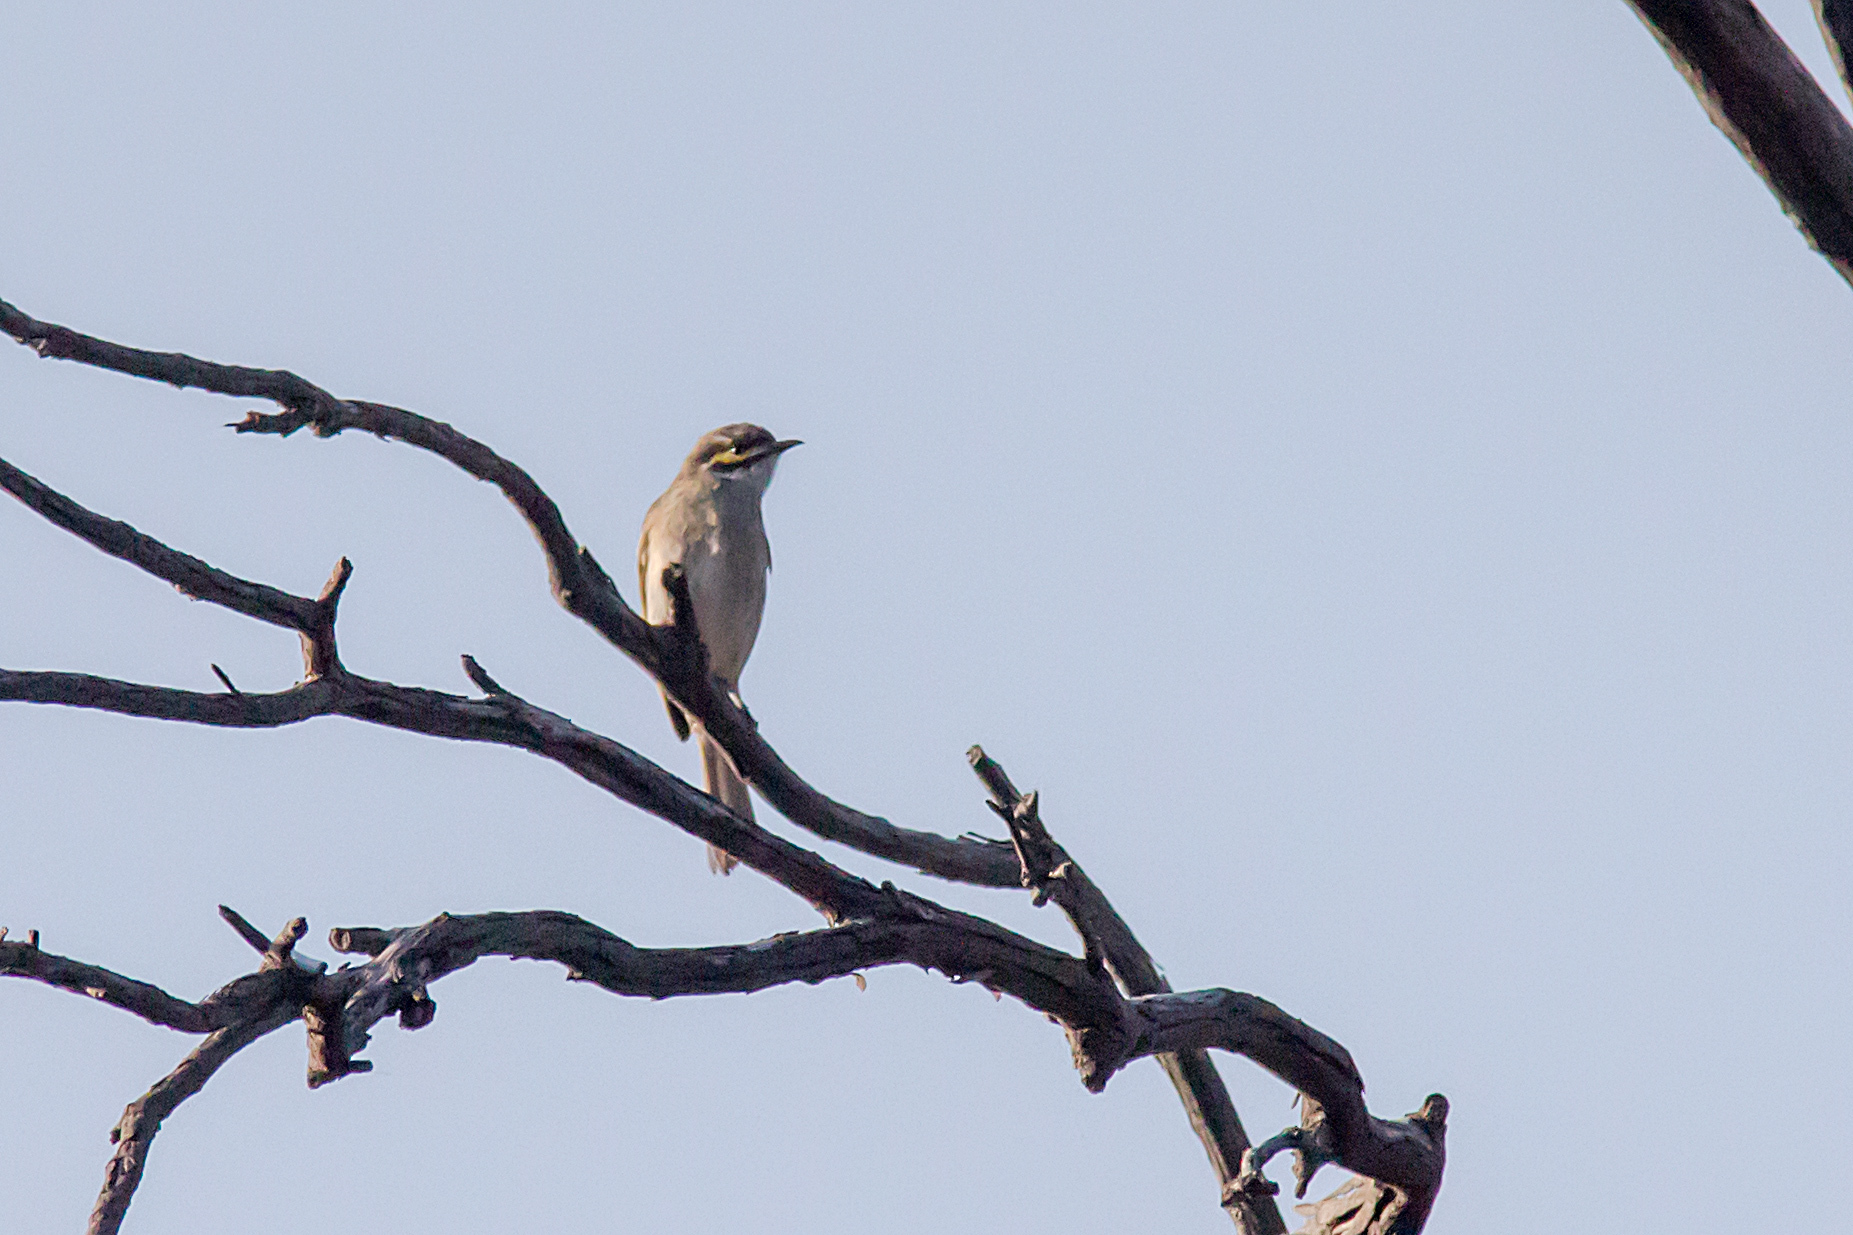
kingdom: Animalia
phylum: Chordata
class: Aves
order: Passeriformes
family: Meliphagidae
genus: Caligavis
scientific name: Caligavis chrysops
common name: Yellow-faced honeyeater
